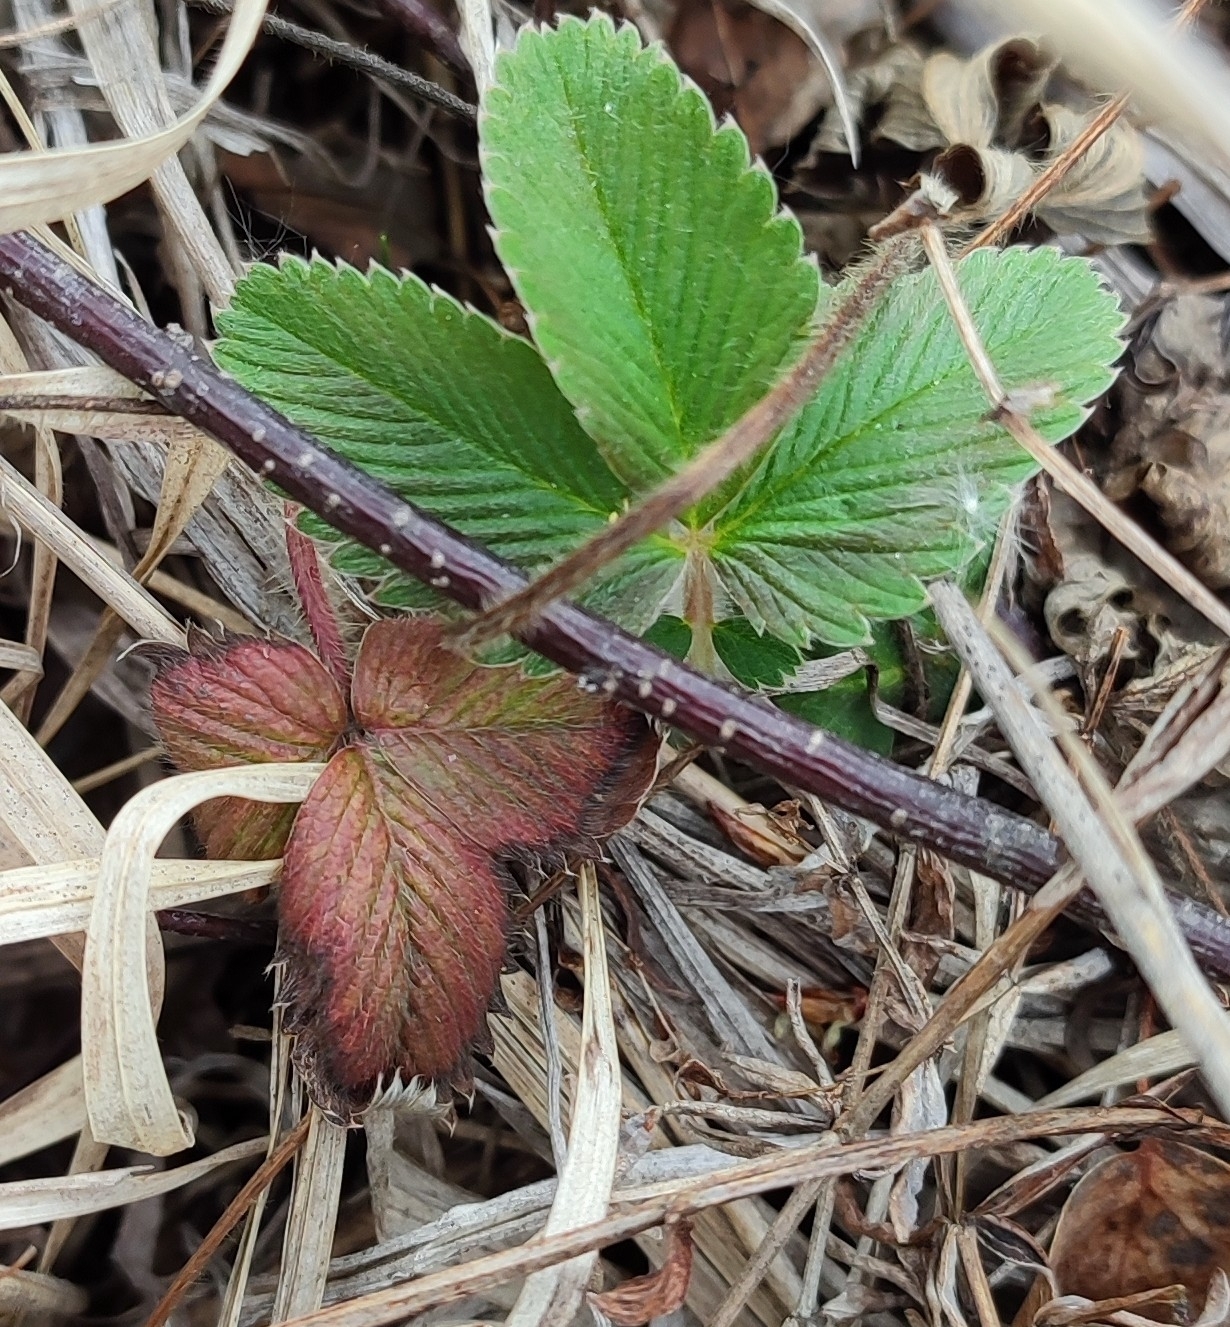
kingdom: Plantae
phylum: Tracheophyta
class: Magnoliopsida
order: Rosales
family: Rosaceae
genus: Fragaria
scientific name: Fragaria viridis
